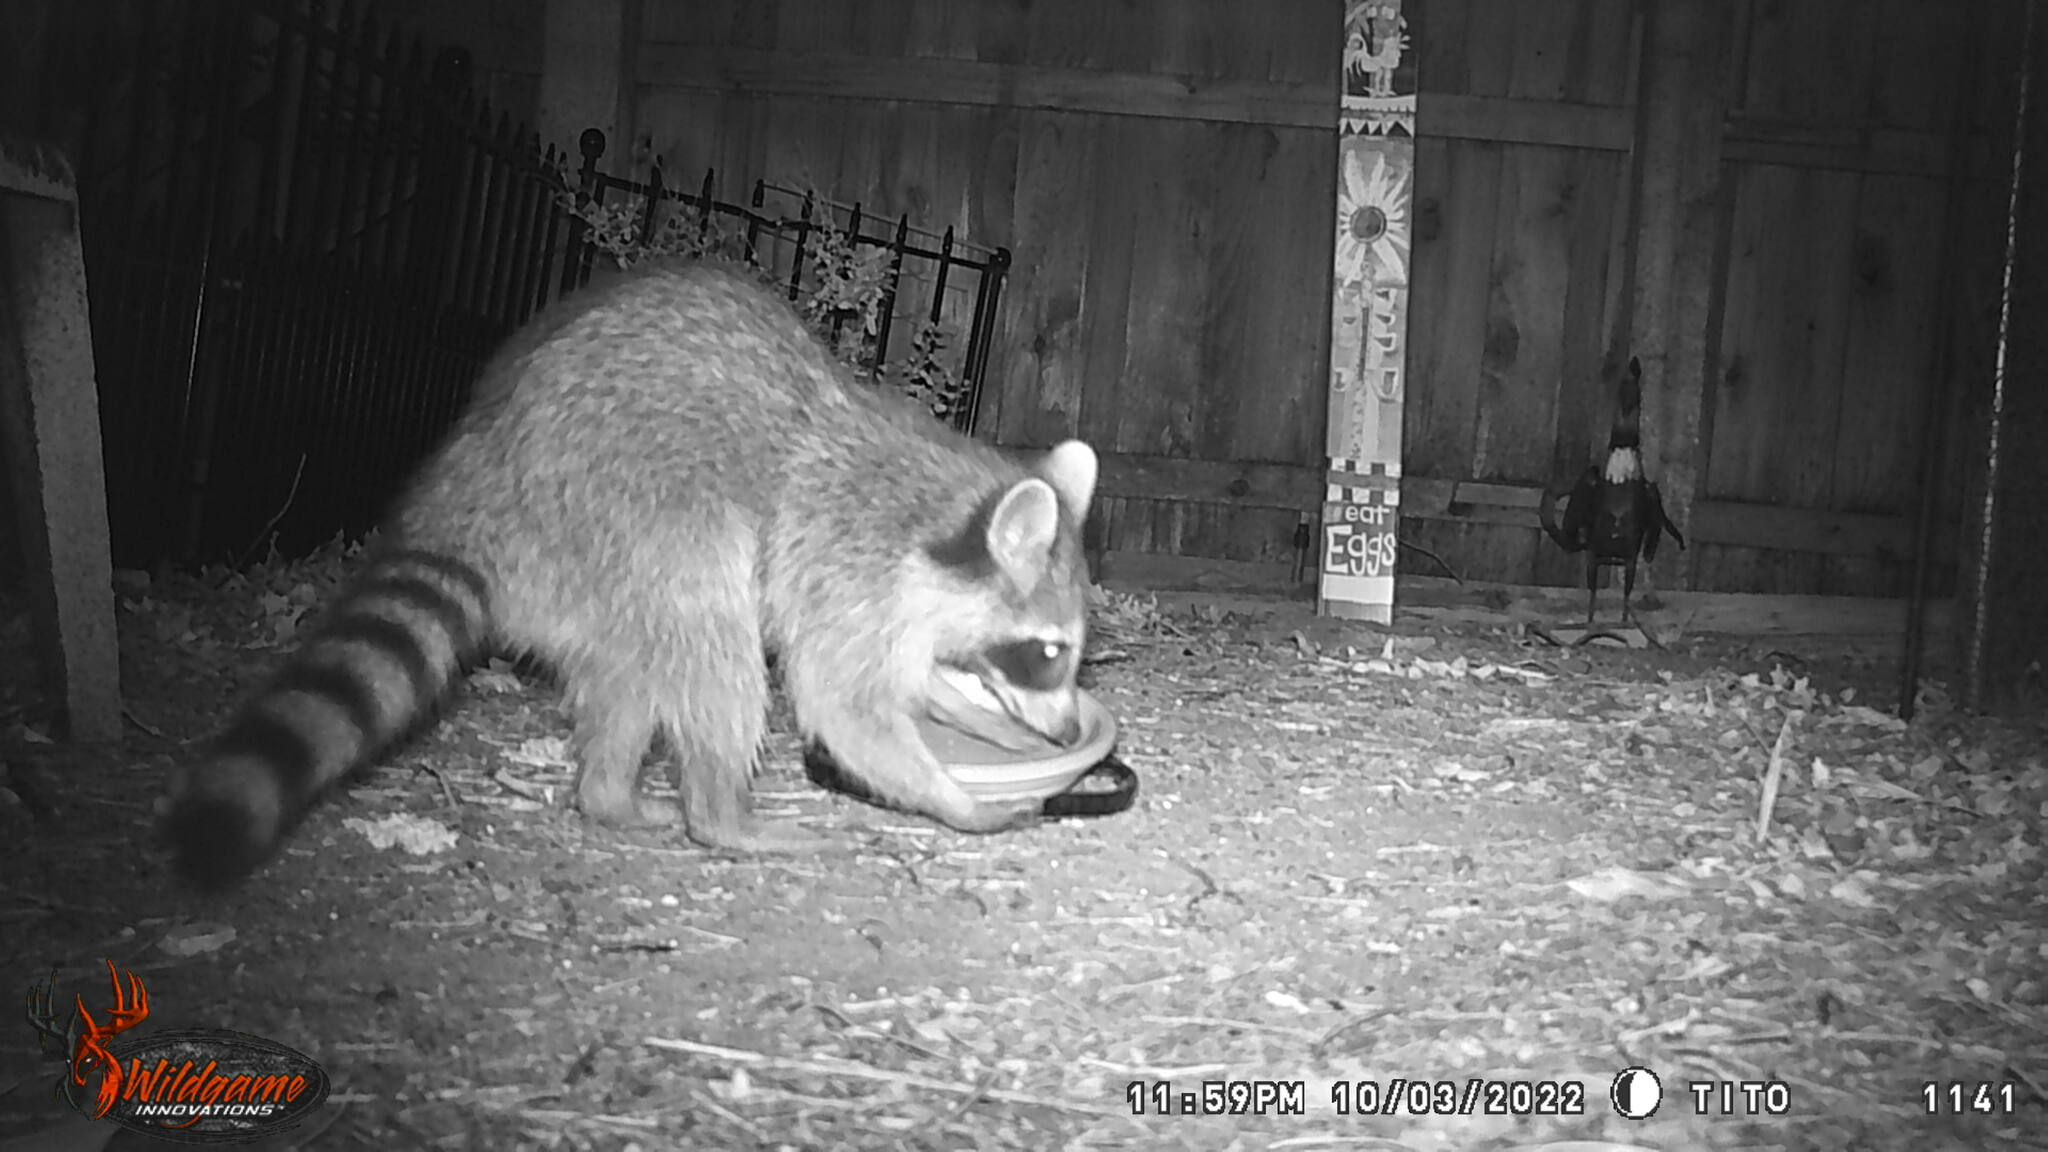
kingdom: Animalia
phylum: Chordata
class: Mammalia
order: Carnivora
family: Procyonidae
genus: Procyon
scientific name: Procyon lotor
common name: Raccoon
